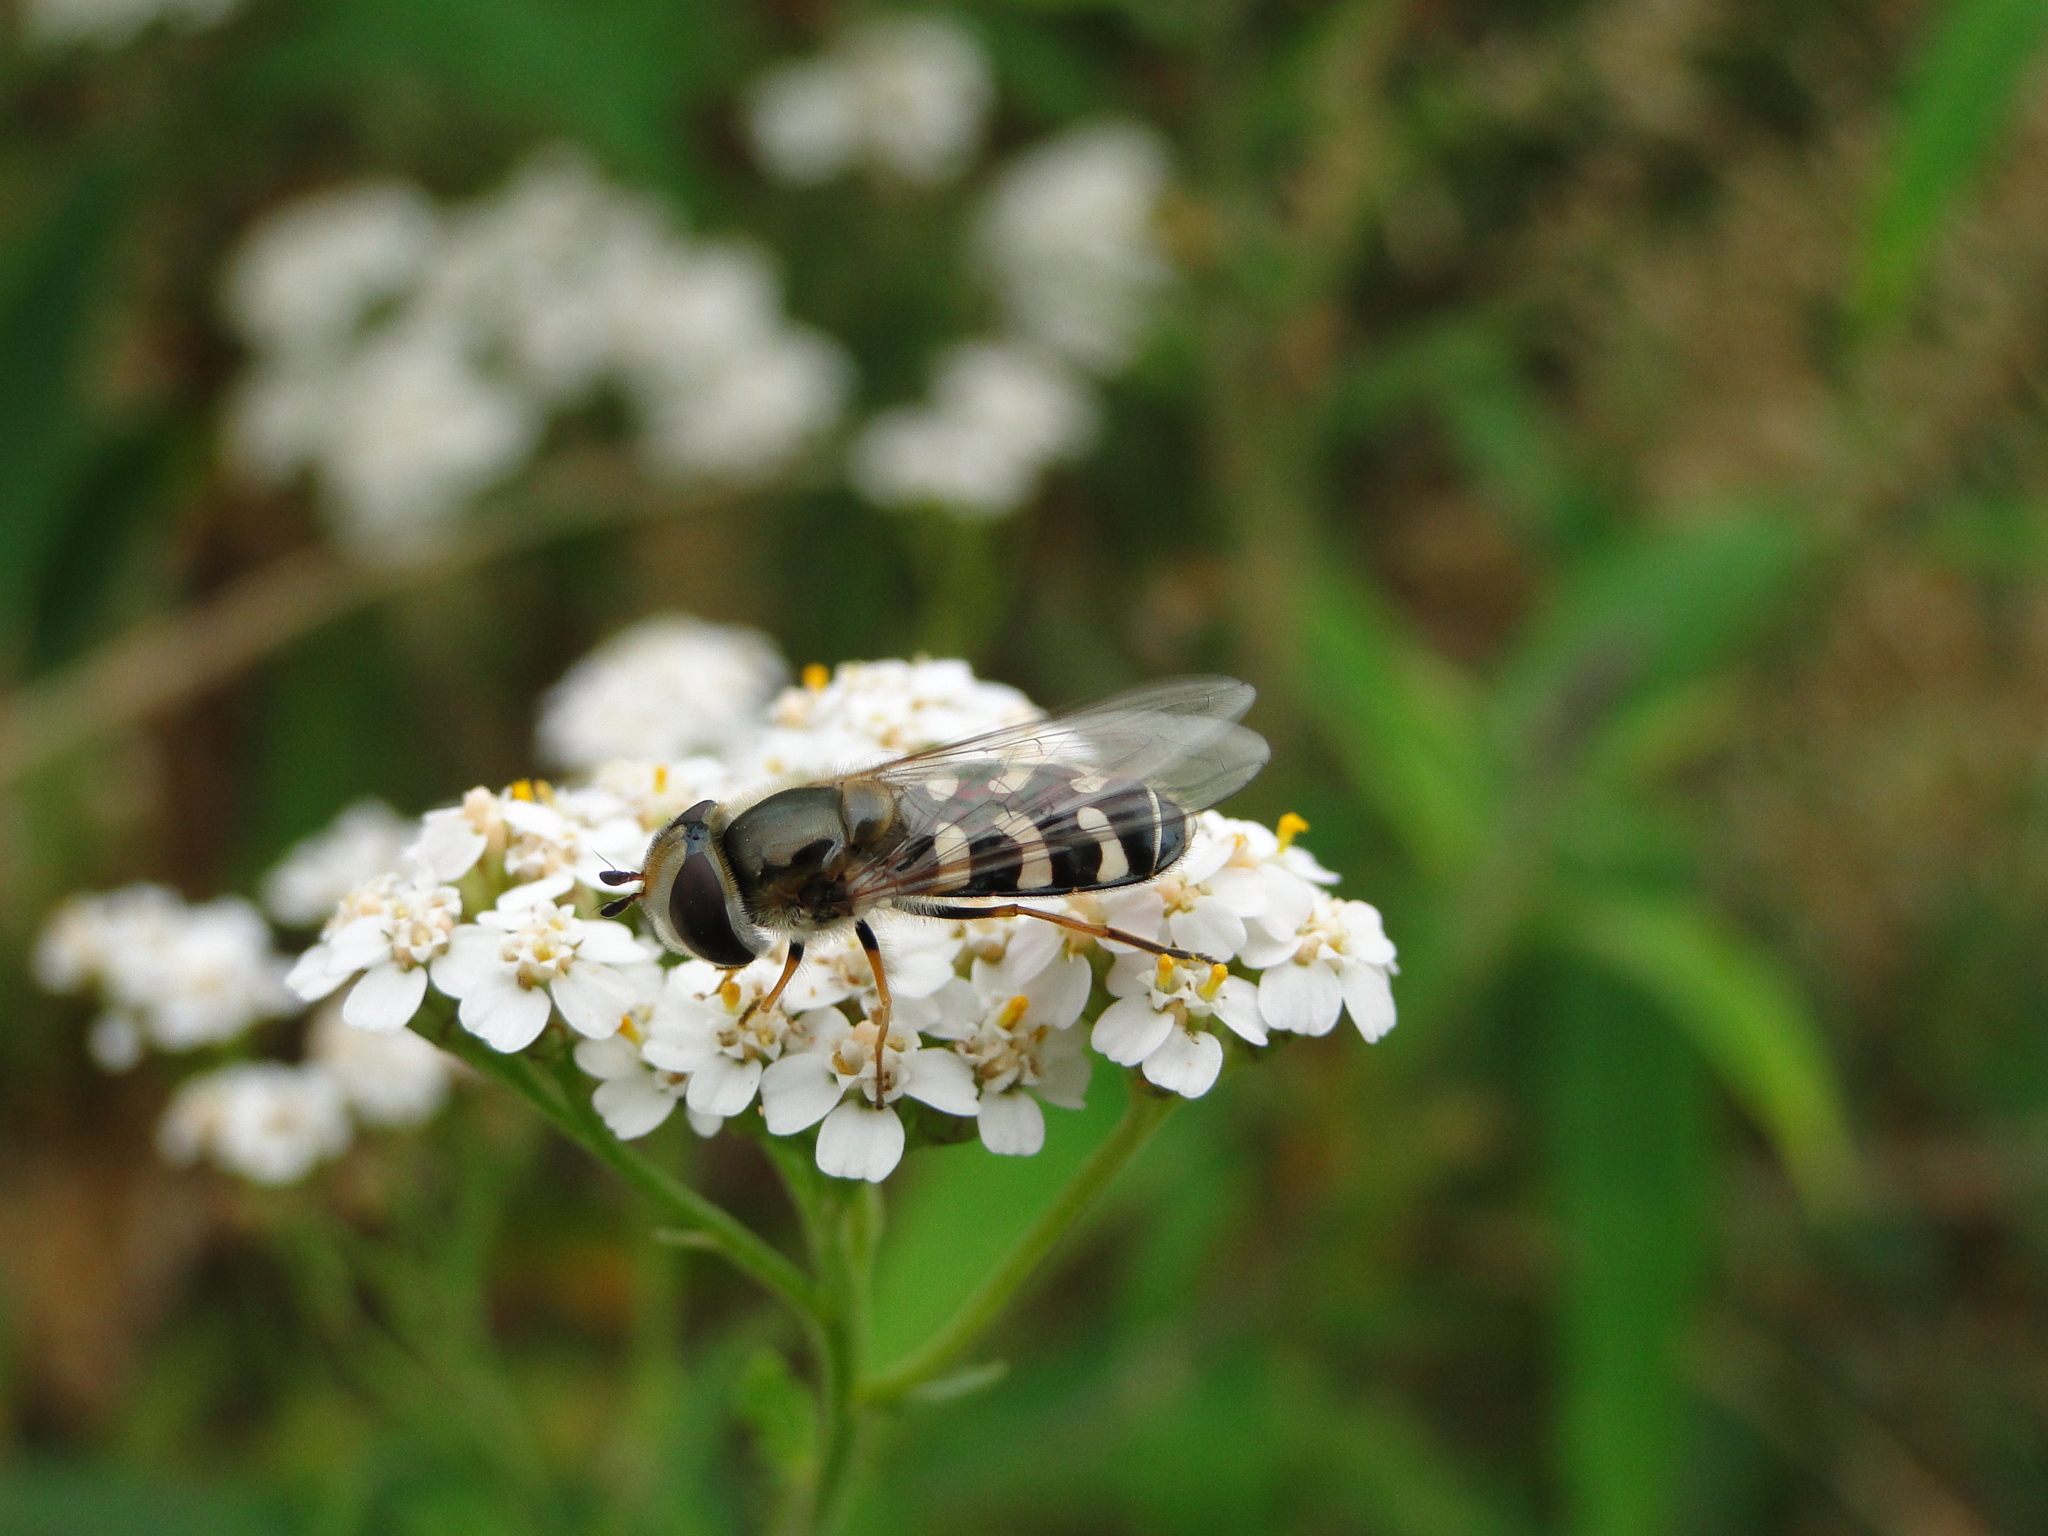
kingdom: Animalia
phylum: Arthropoda
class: Insecta
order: Diptera
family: Syrphidae
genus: Scaeva
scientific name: Scaeva pyrastri
